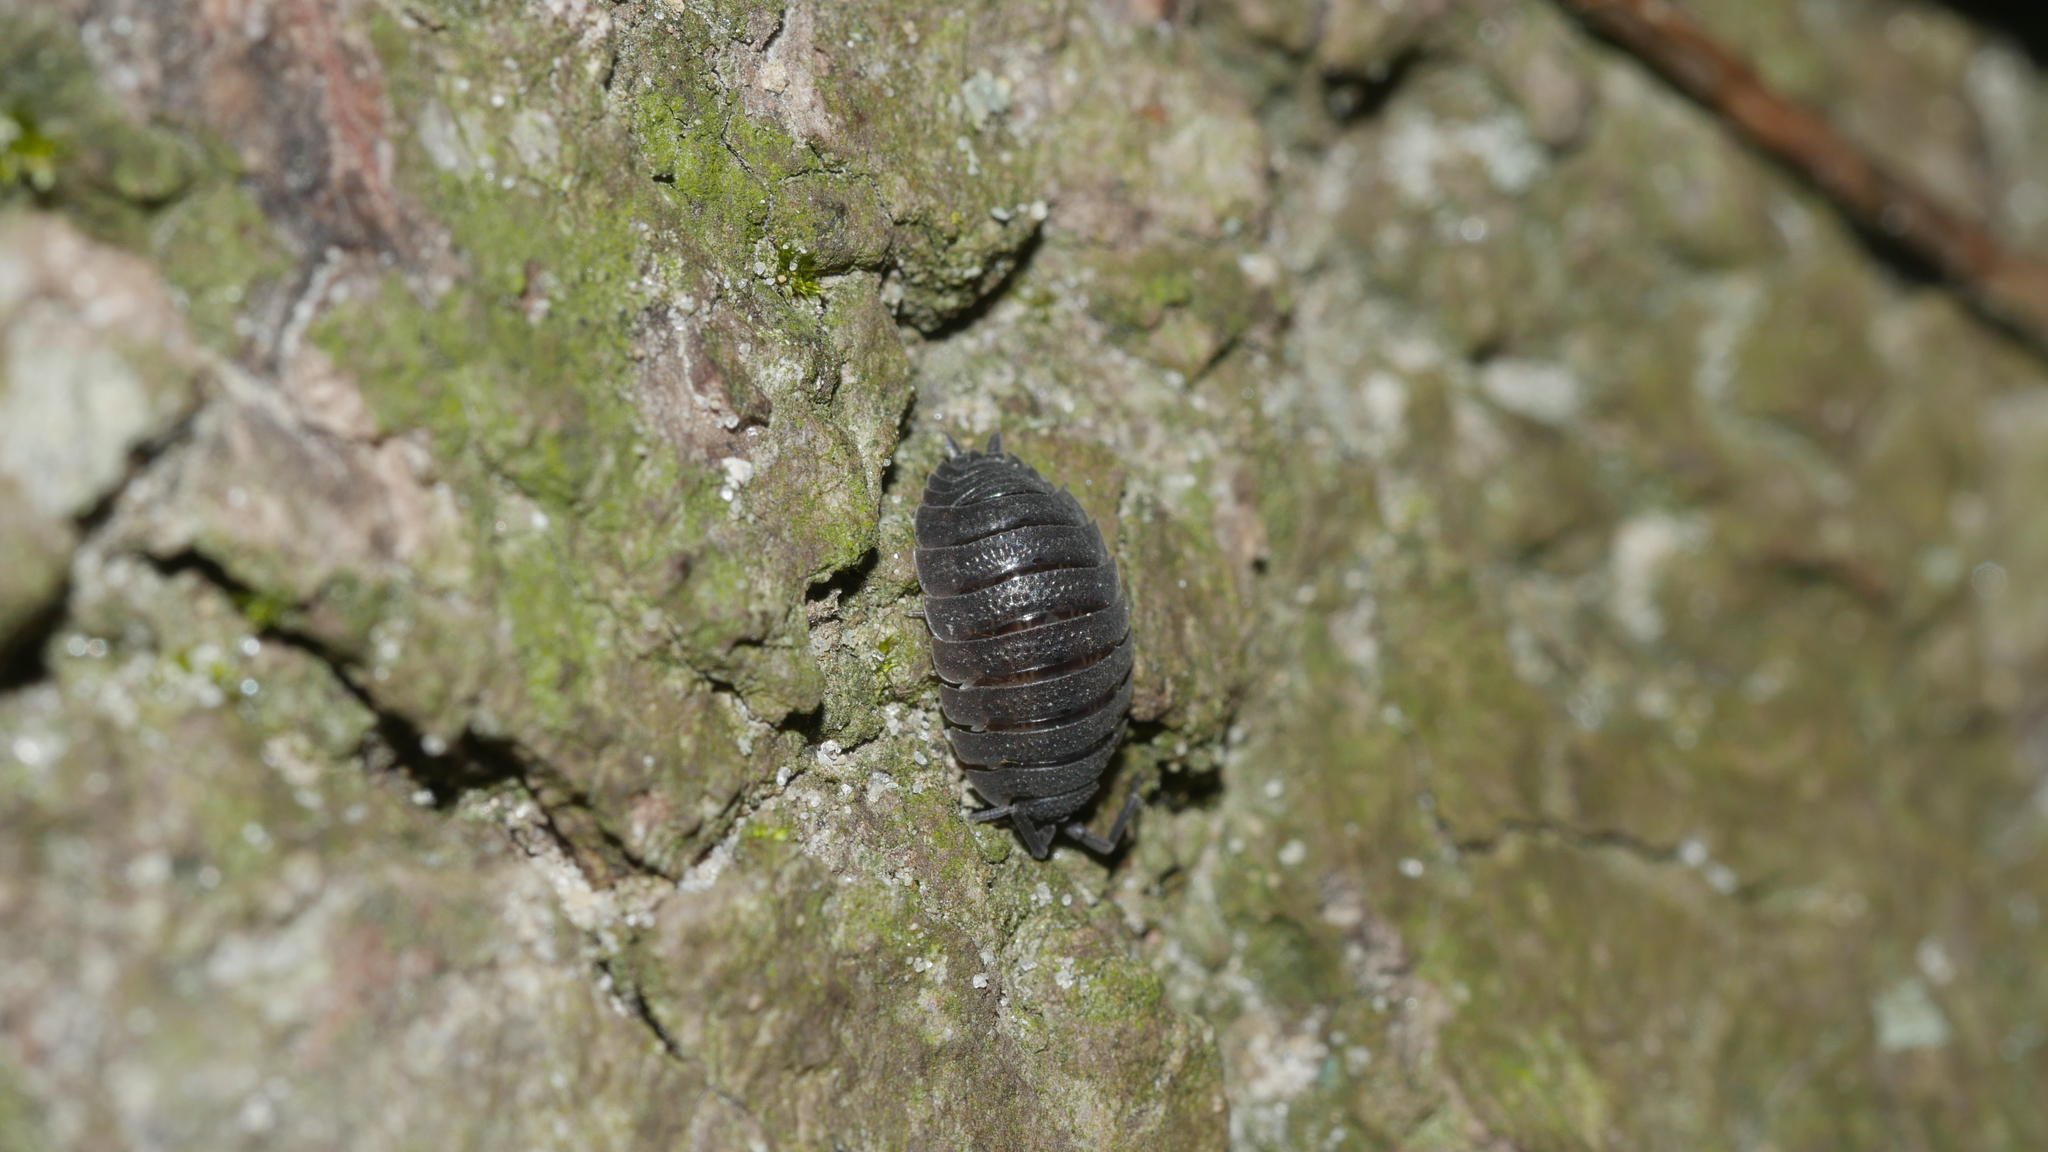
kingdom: Animalia
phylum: Arthropoda
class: Malacostraca
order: Isopoda
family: Porcellionidae
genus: Porcellio
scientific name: Porcellio scaber
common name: Common rough woodlouse
